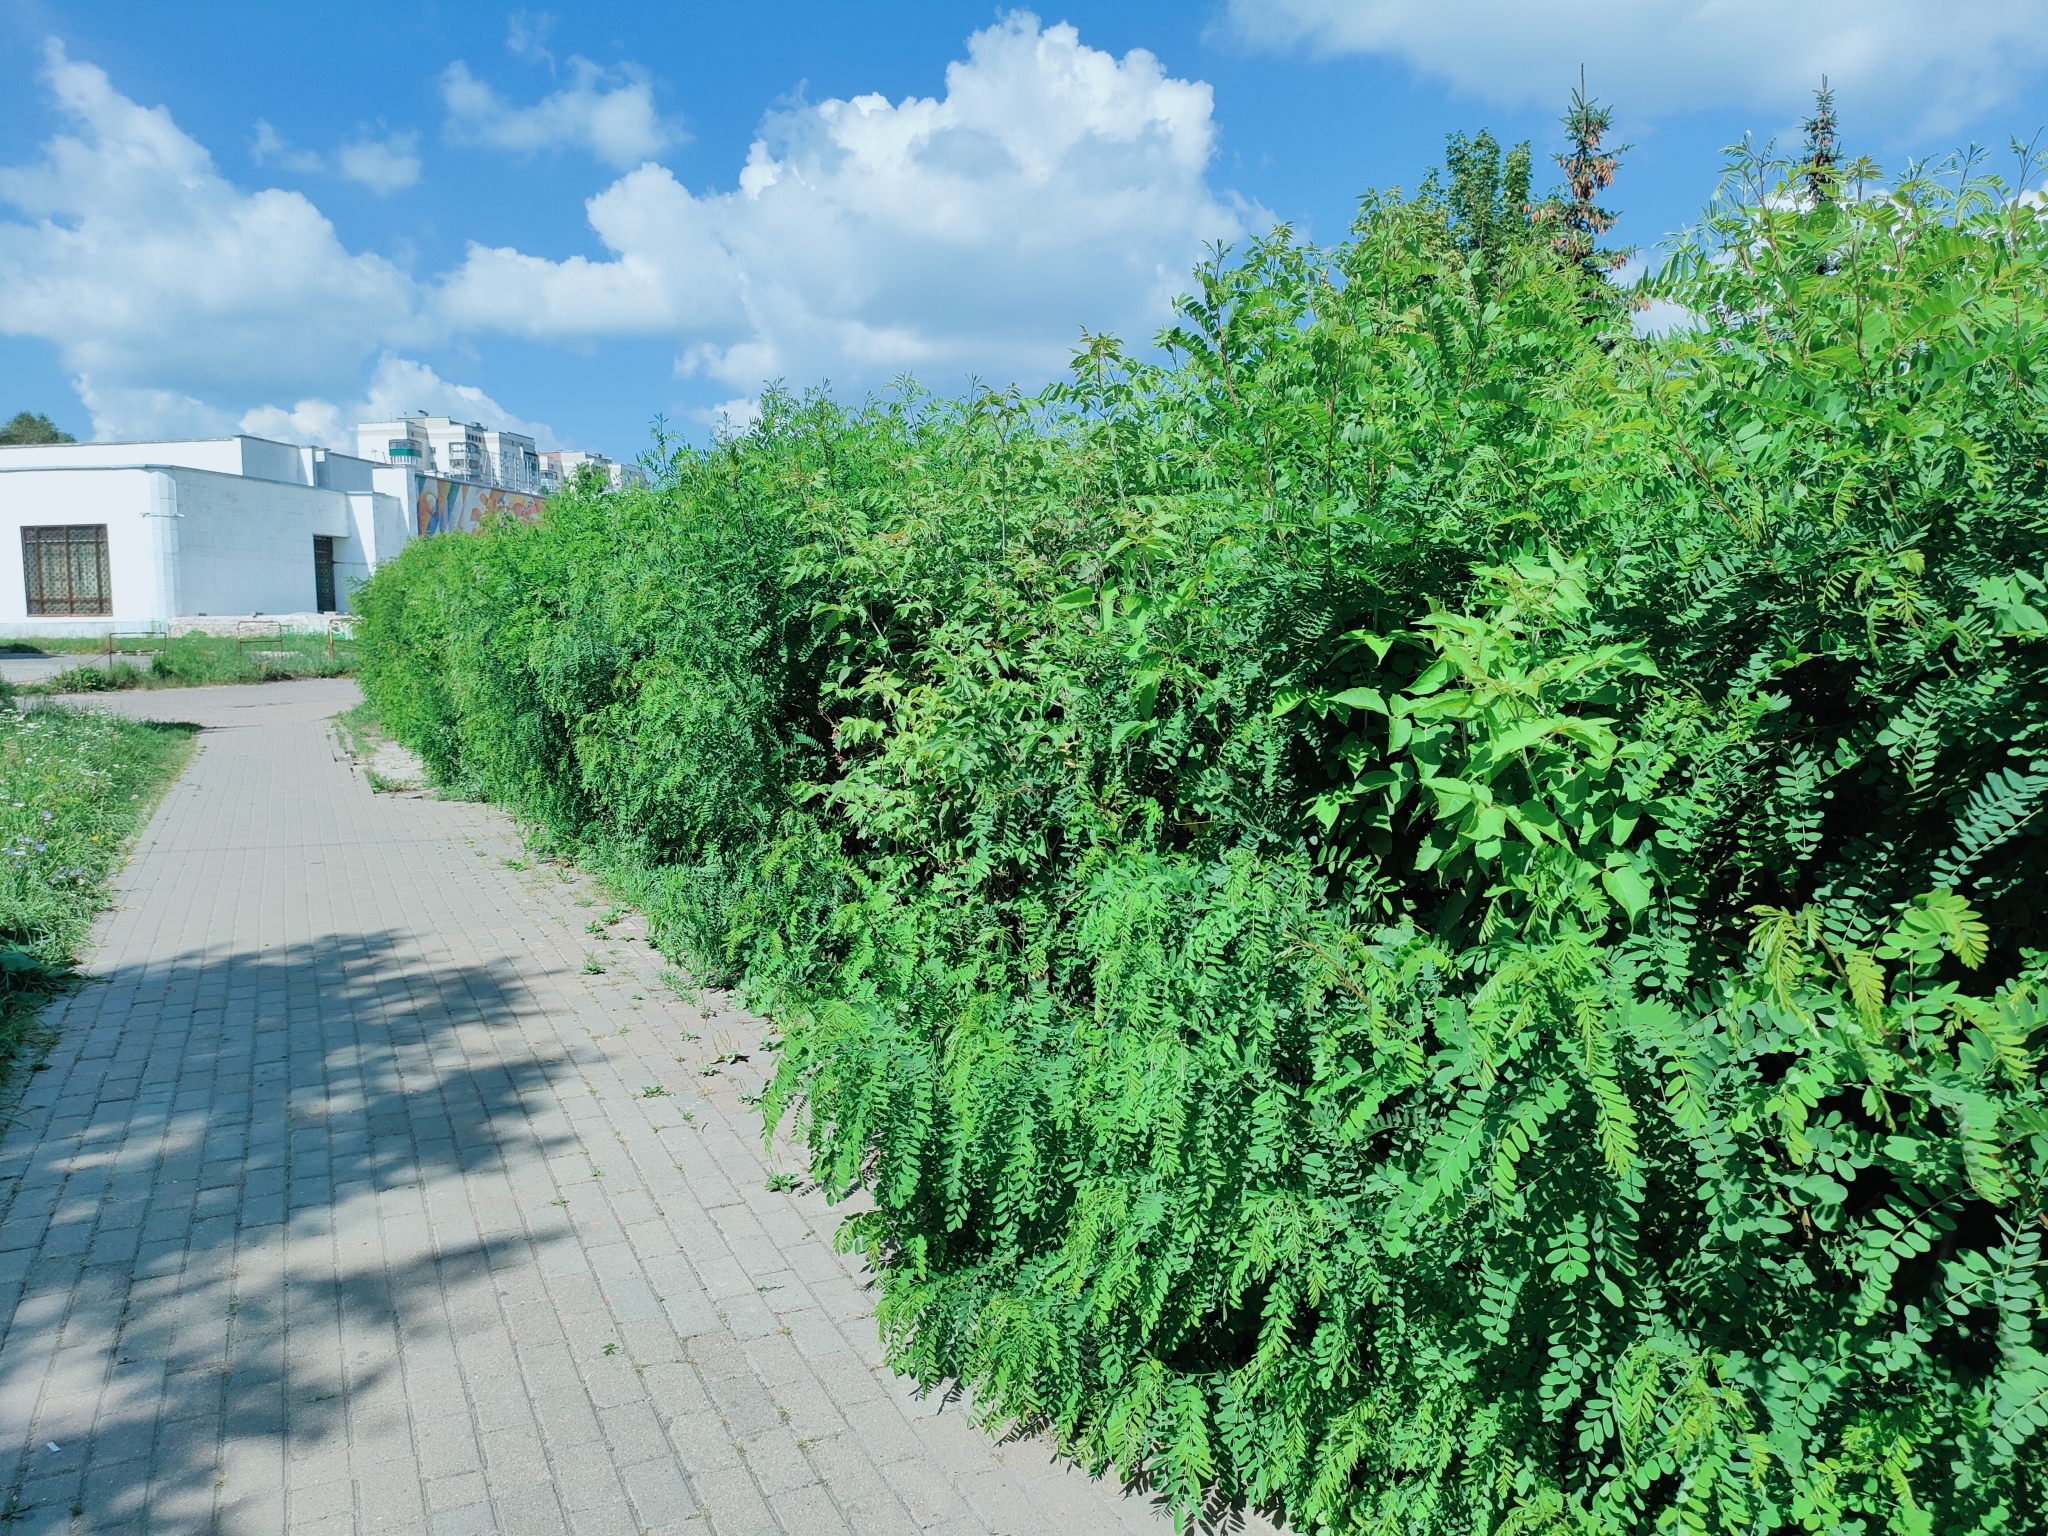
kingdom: Plantae
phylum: Tracheophyta
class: Magnoliopsida
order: Fabales
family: Fabaceae
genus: Amorpha
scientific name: Amorpha fruticosa
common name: False indigo
